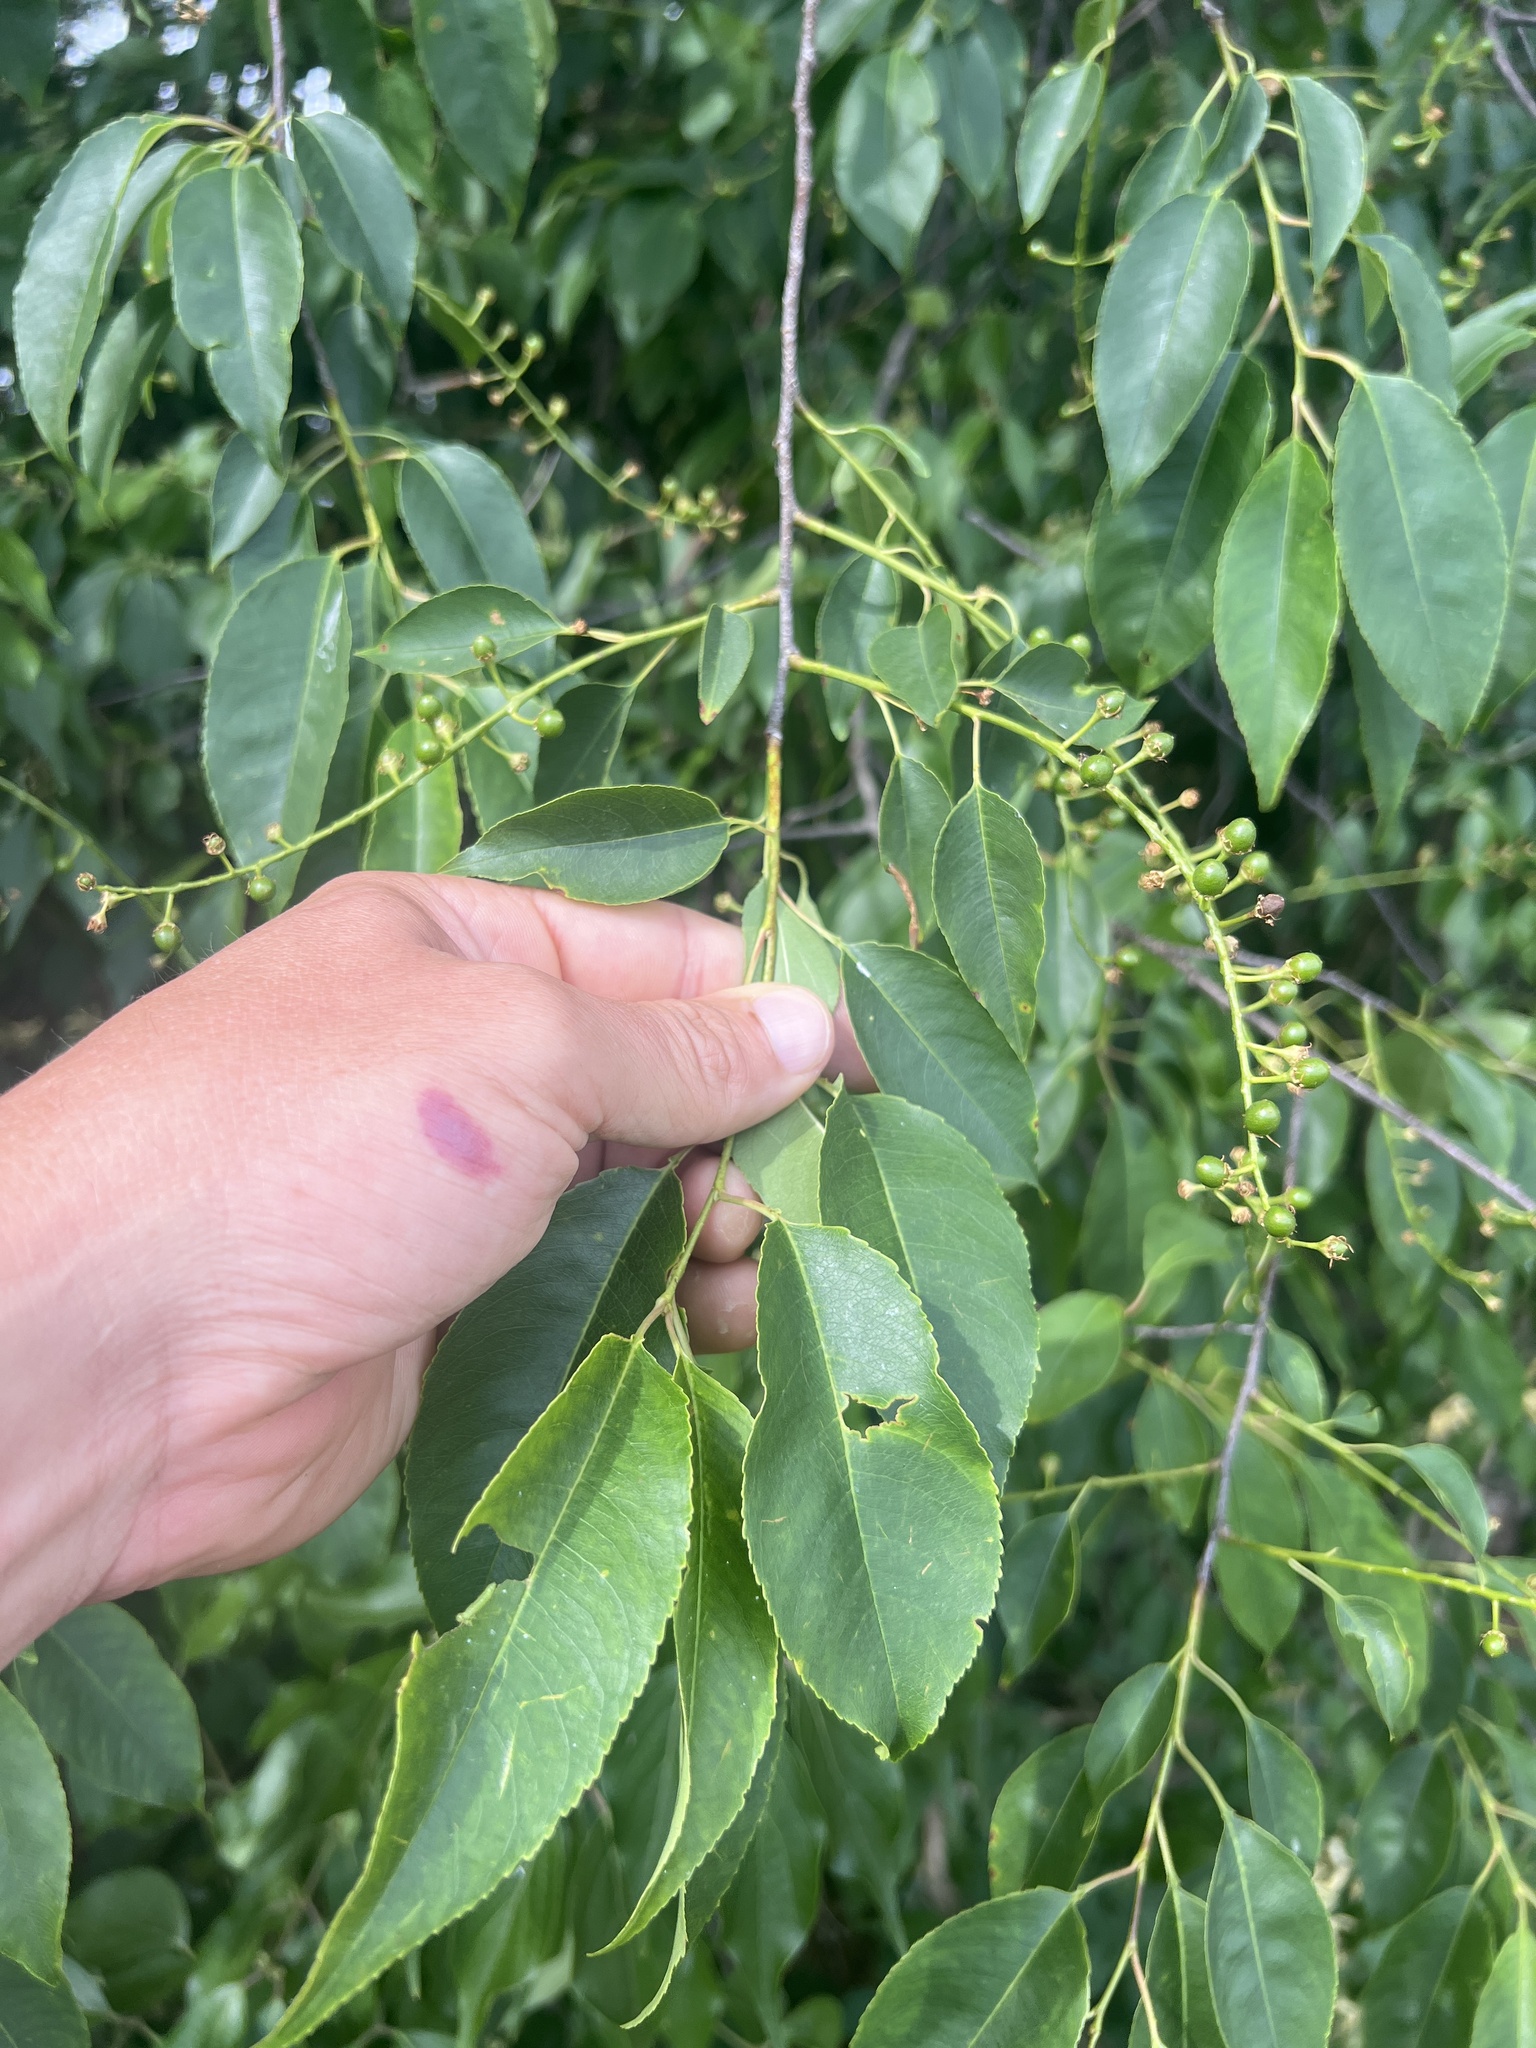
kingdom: Plantae
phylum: Tracheophyta
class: Magnoliopsida
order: Rosales
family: Rosaceae
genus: Prunus
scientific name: Prunus serotina
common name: Black cherry
